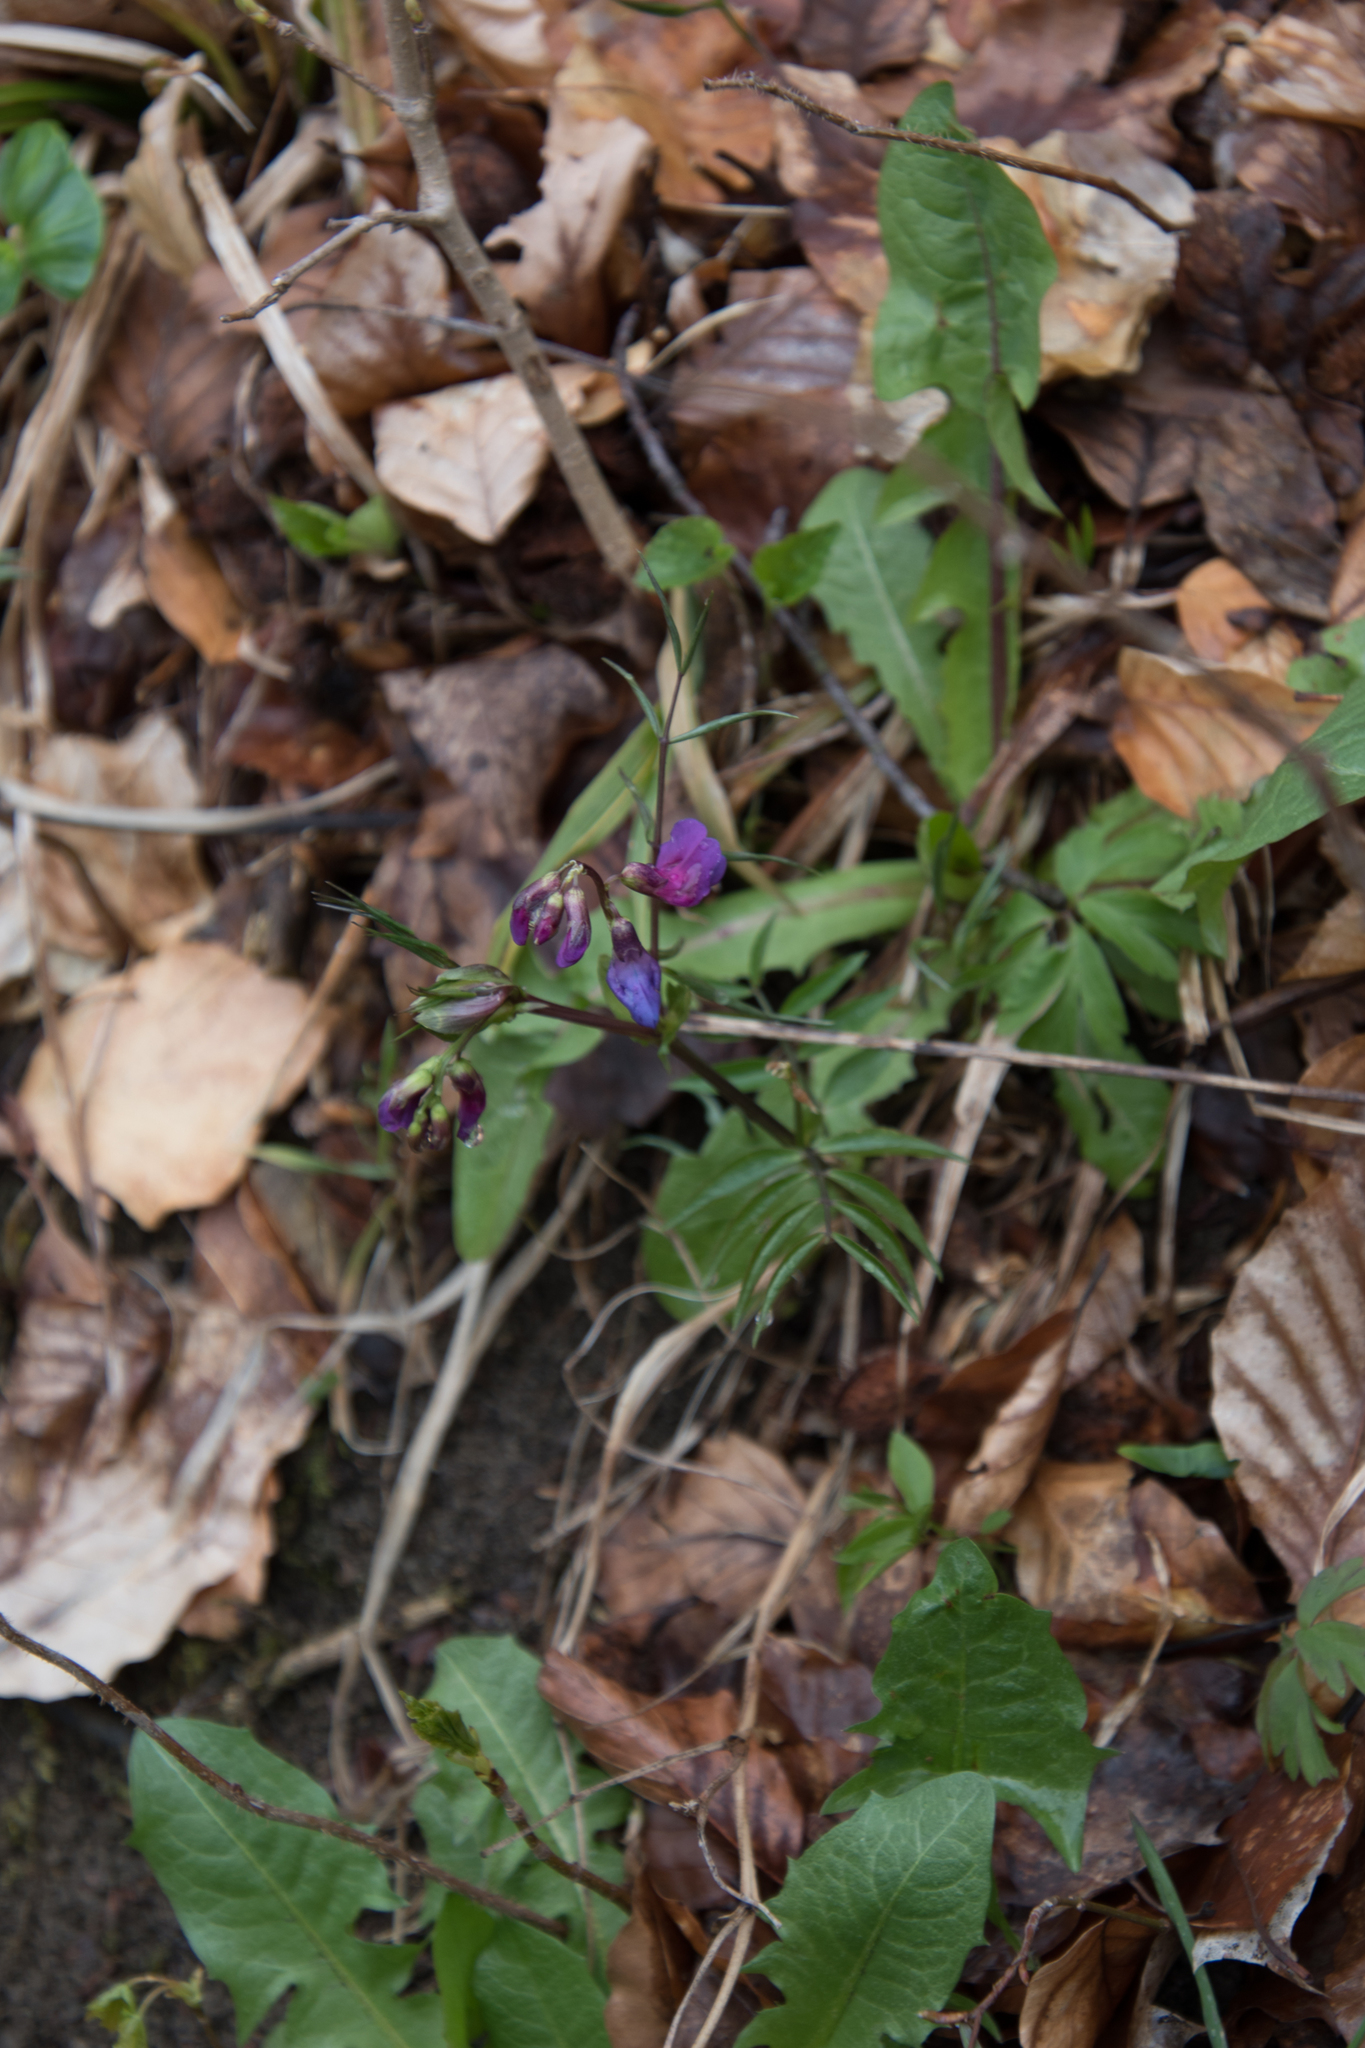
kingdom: Plantae
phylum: Tracheophyta
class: Magnoliopsida
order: Fabales
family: Fabaceae
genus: Lathyrus
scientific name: Lathyrus vernus
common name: Spring pea
